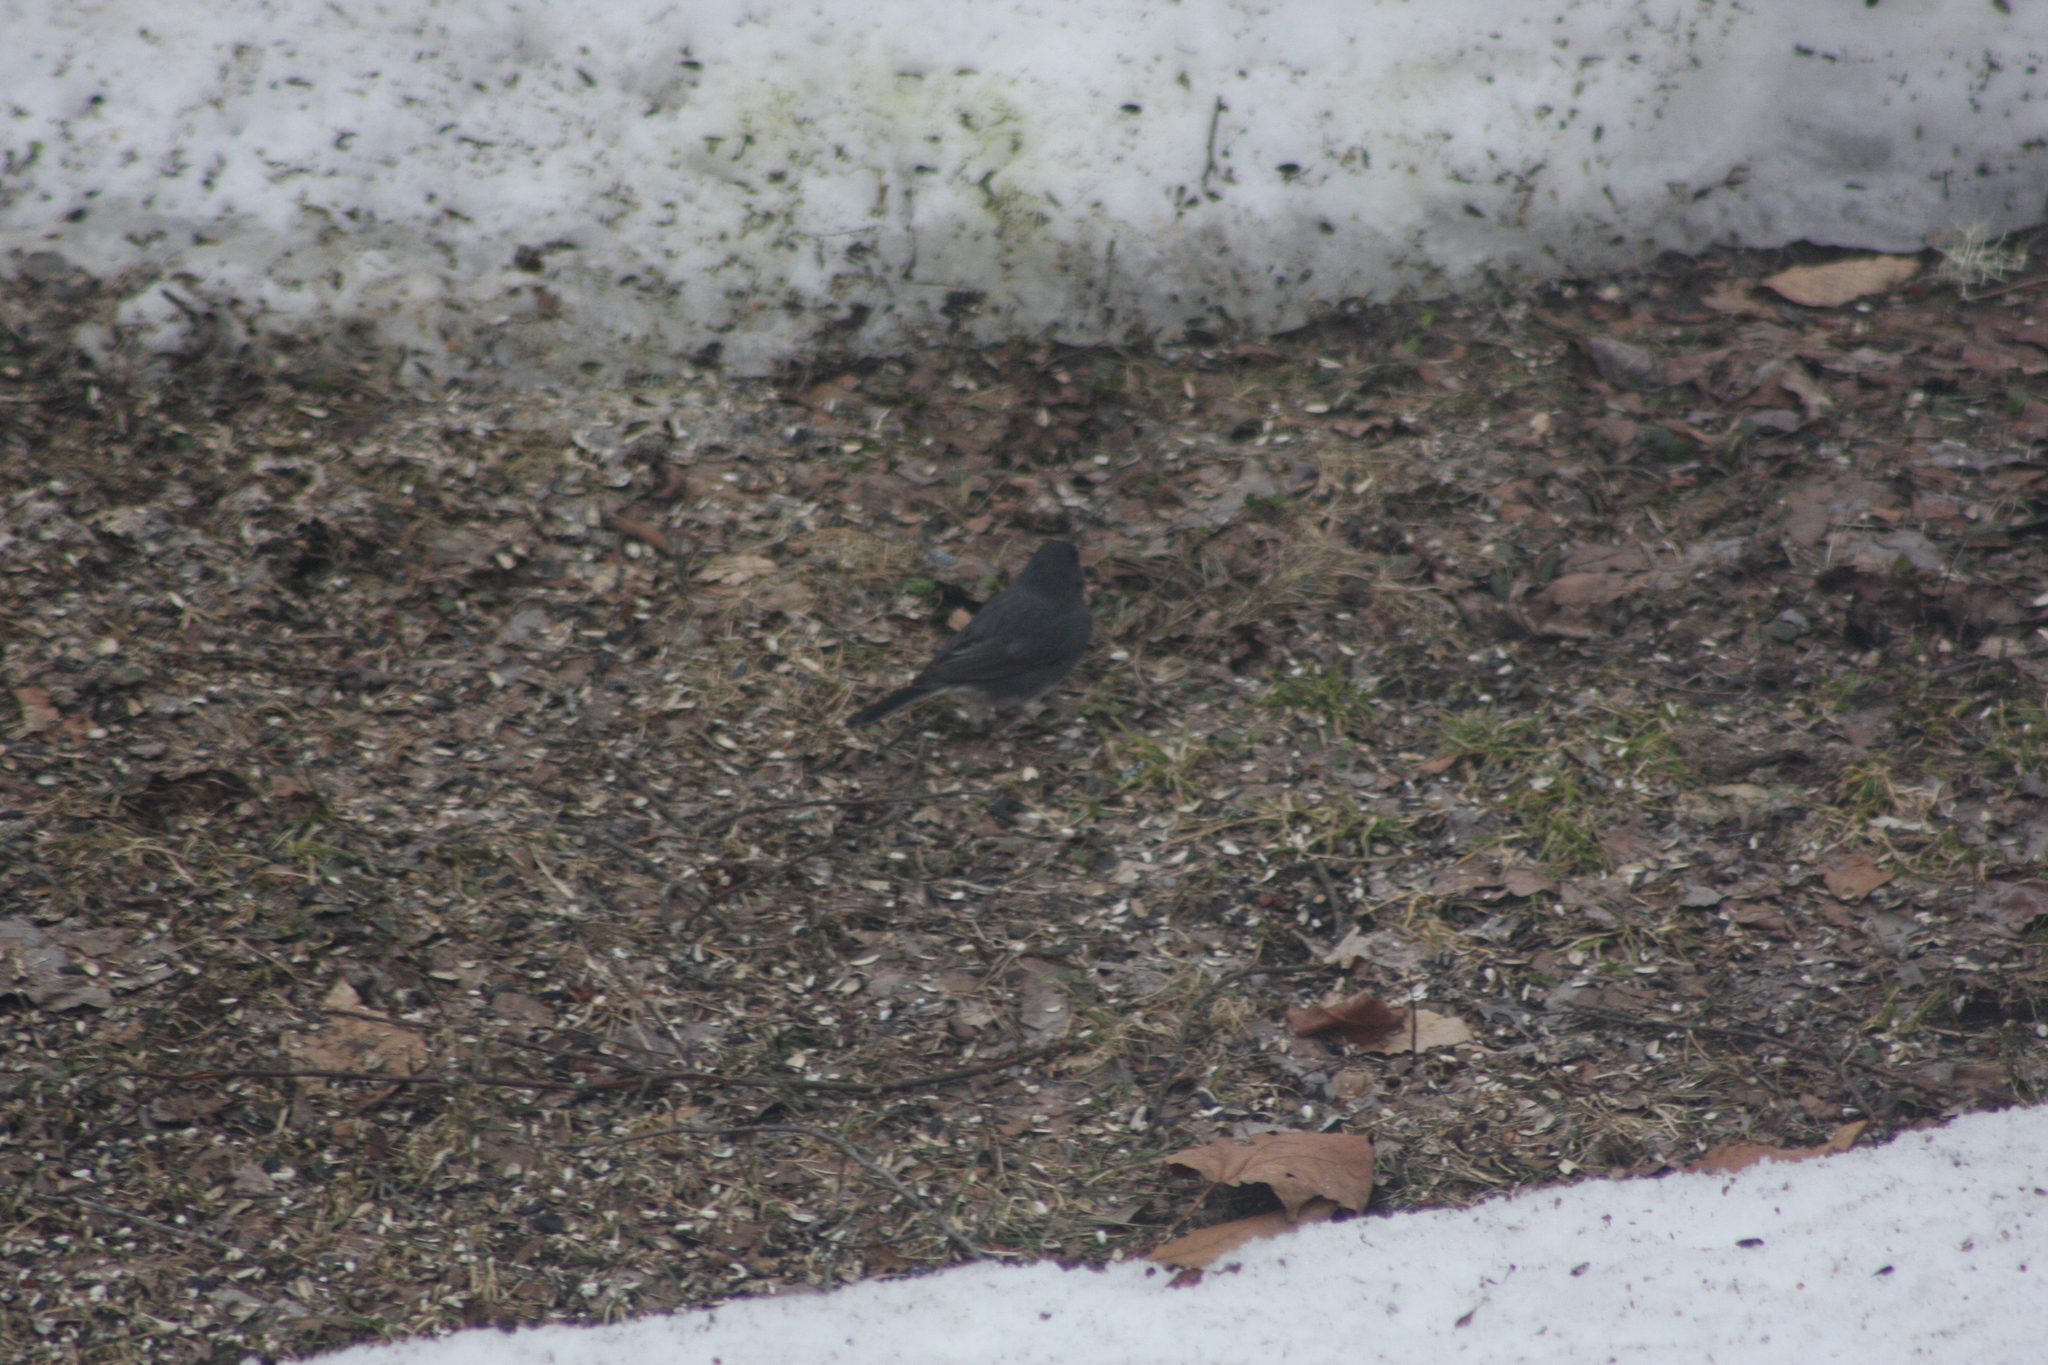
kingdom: Animalia
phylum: Chordata
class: Aves
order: Passeriformes
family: Passerellidae
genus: Junco
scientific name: Junco hyemalis
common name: Dark-eyed junco
